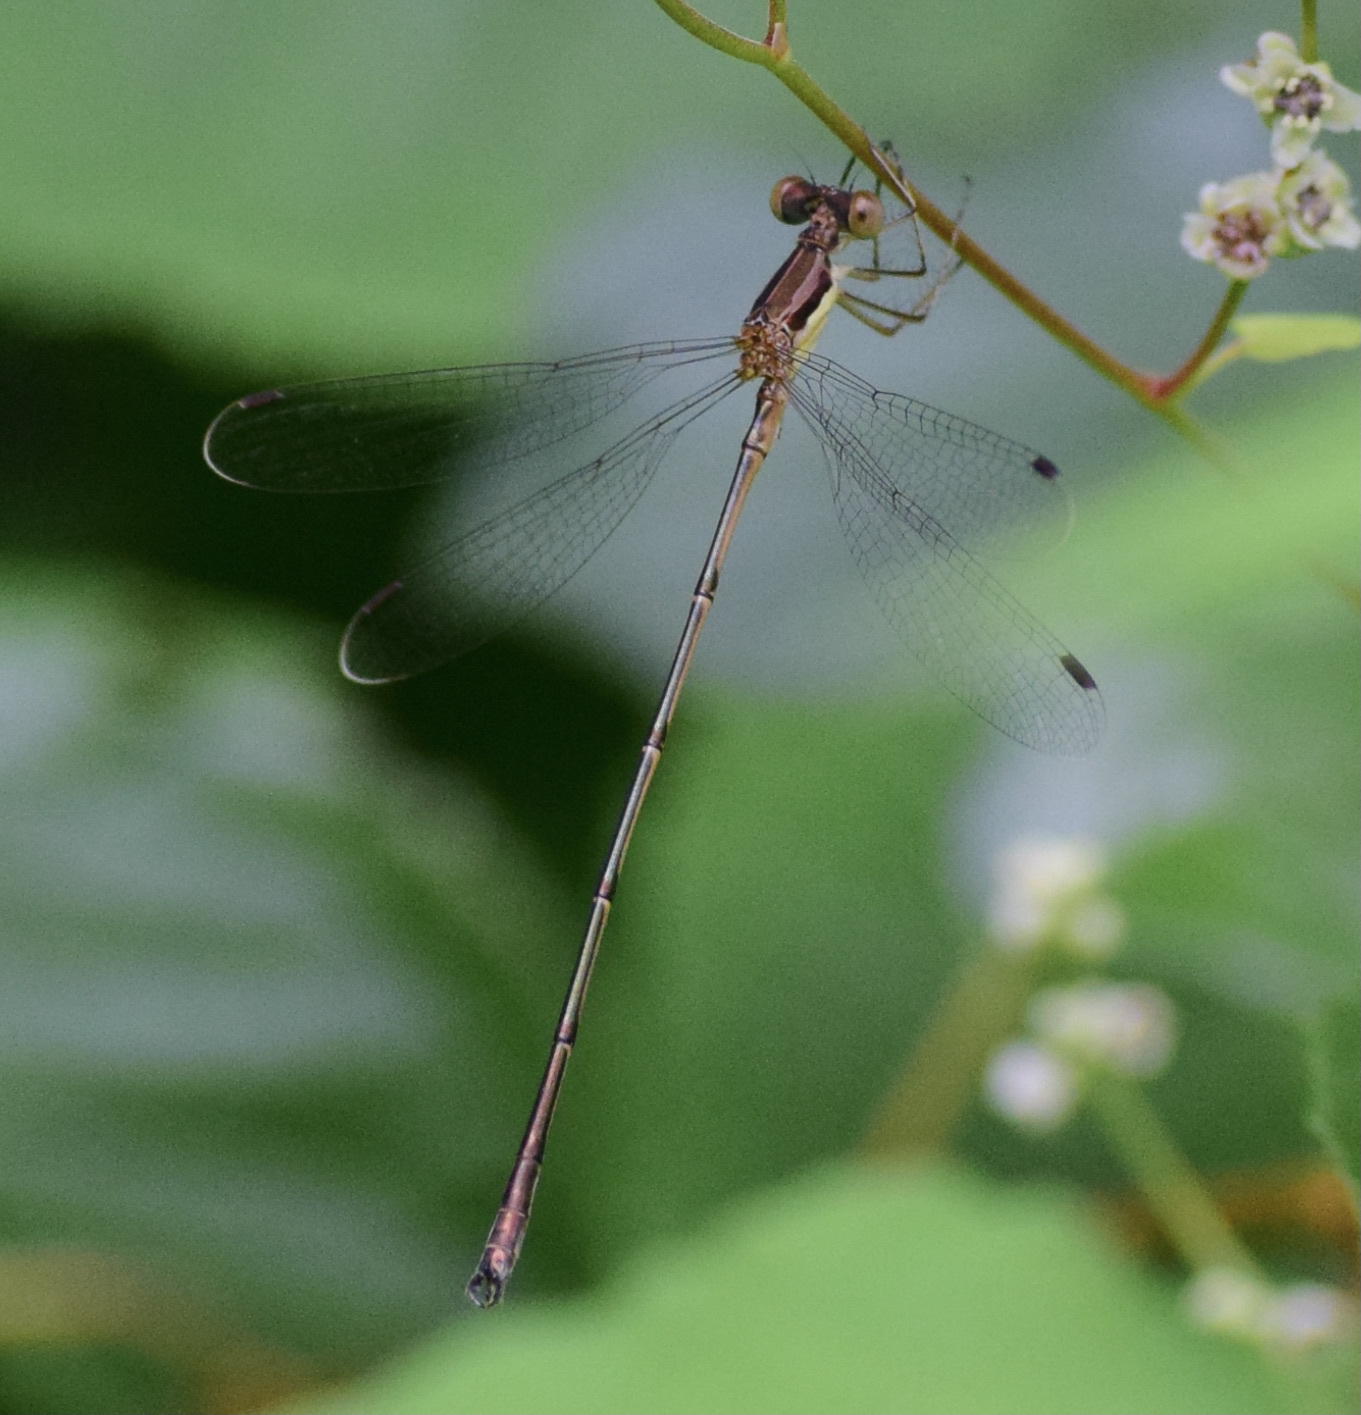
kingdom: Animalia
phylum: Arthropoda
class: Insecta
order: Odonata
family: Lestidae
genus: Lestes
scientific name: Lestes rectangularis
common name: Slender spreadwing
